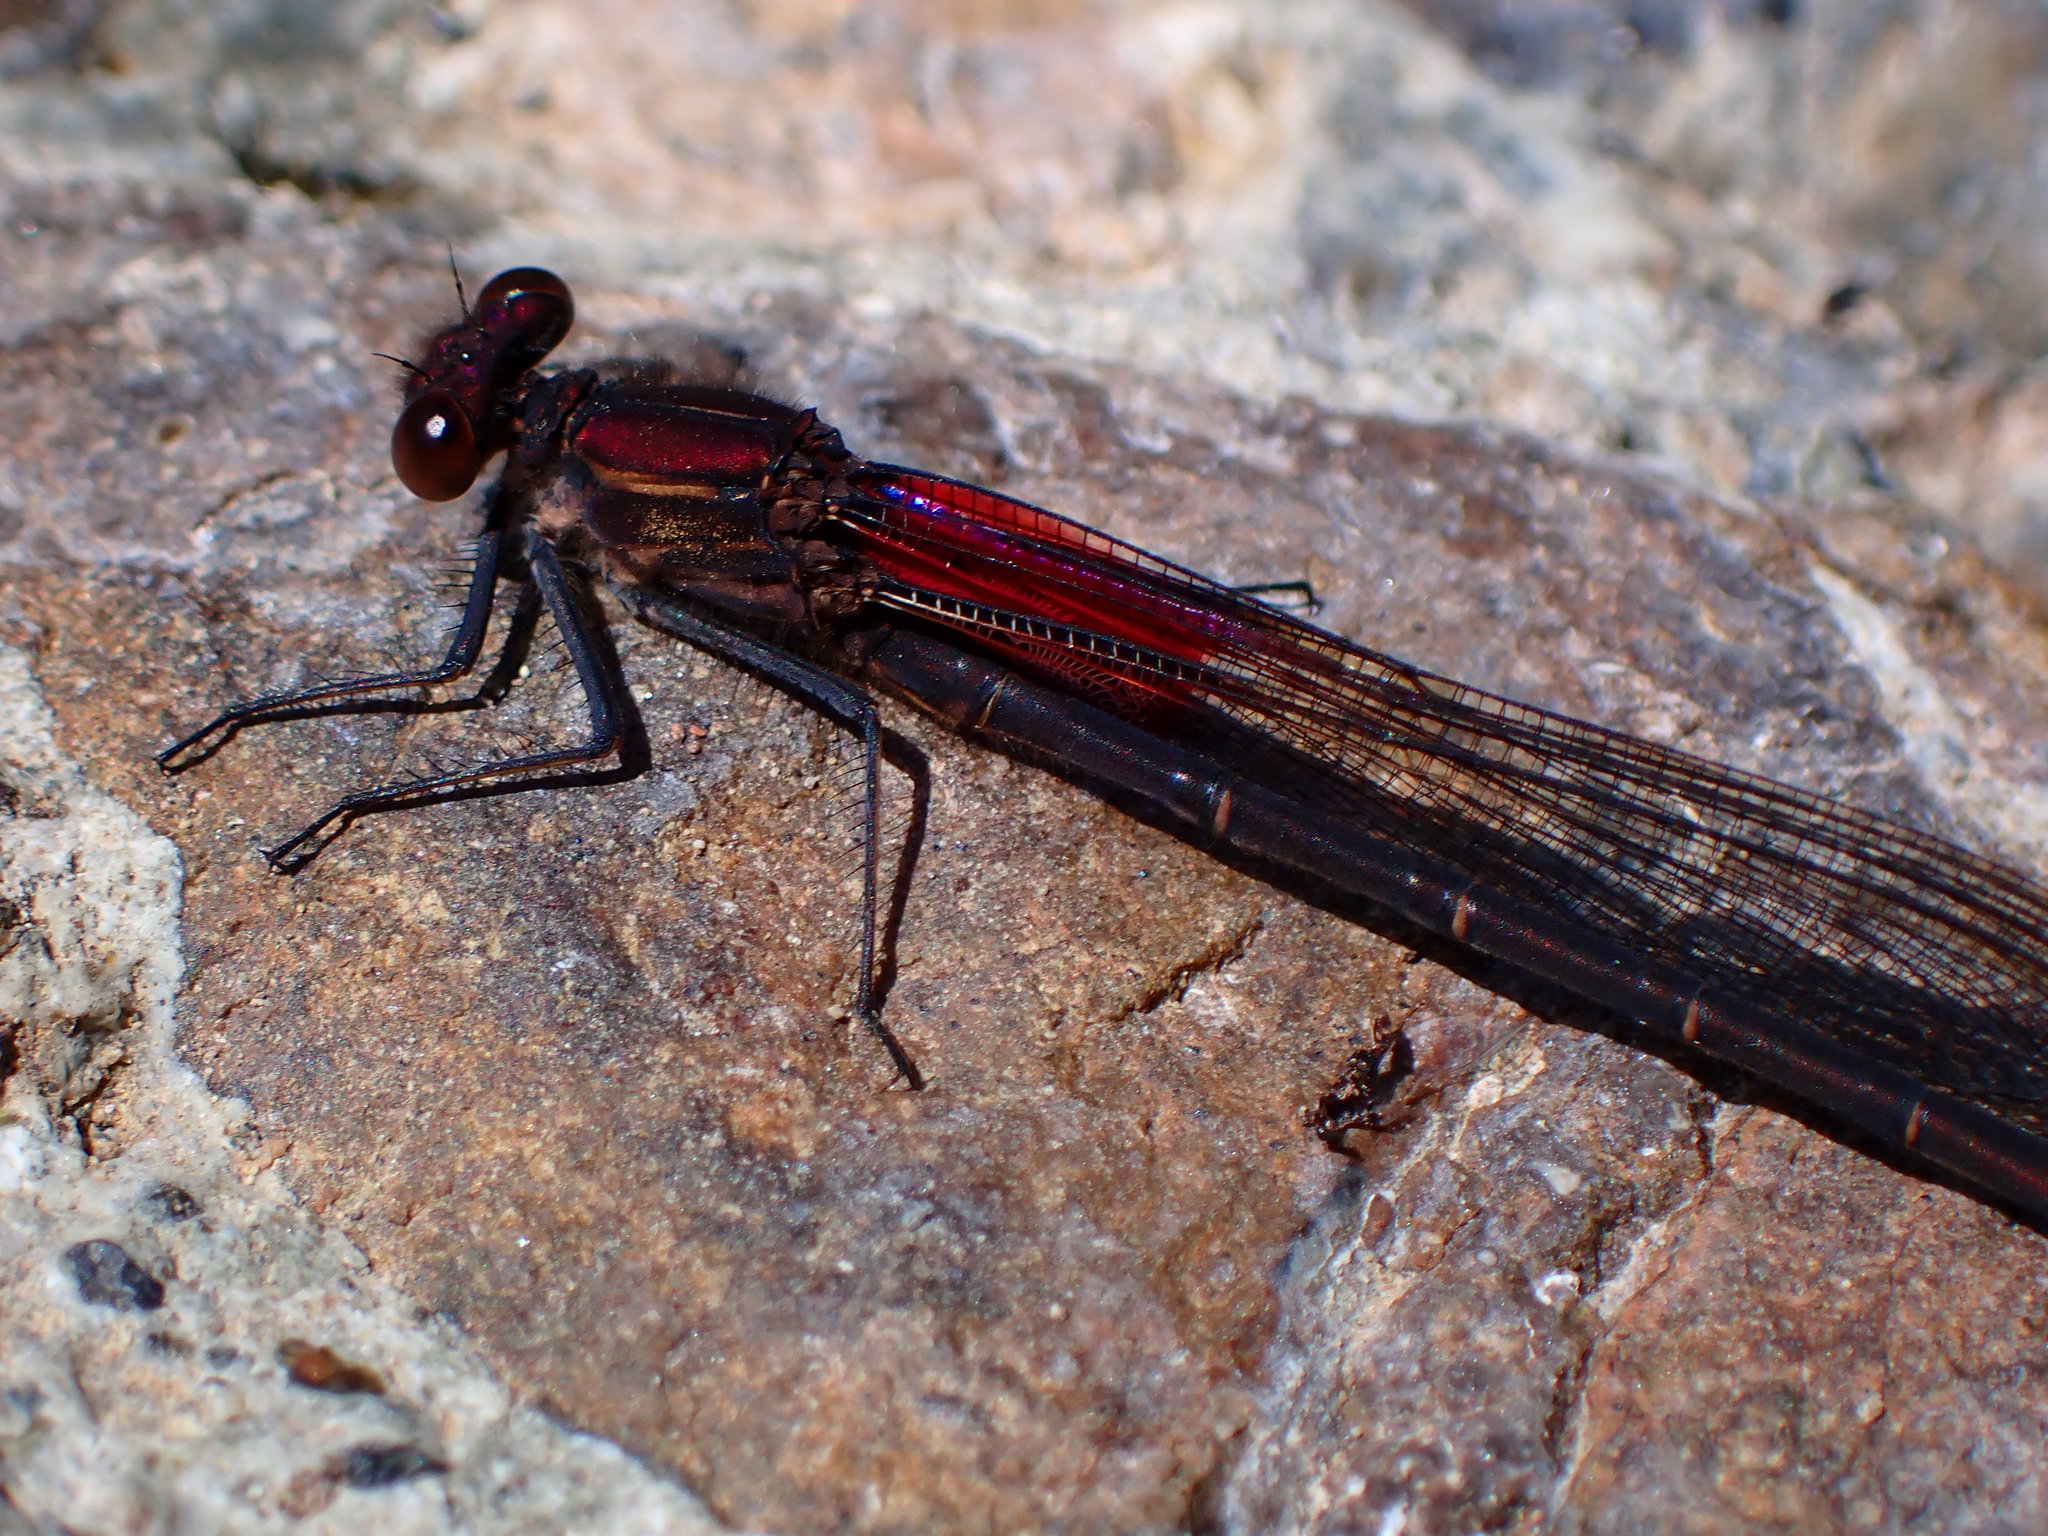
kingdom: Animalia
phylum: Arthropoda
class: Insecta
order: Odonata
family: Calopterygidae
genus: Hetaerina
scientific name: Hetaerina americana
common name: American rubyspot
